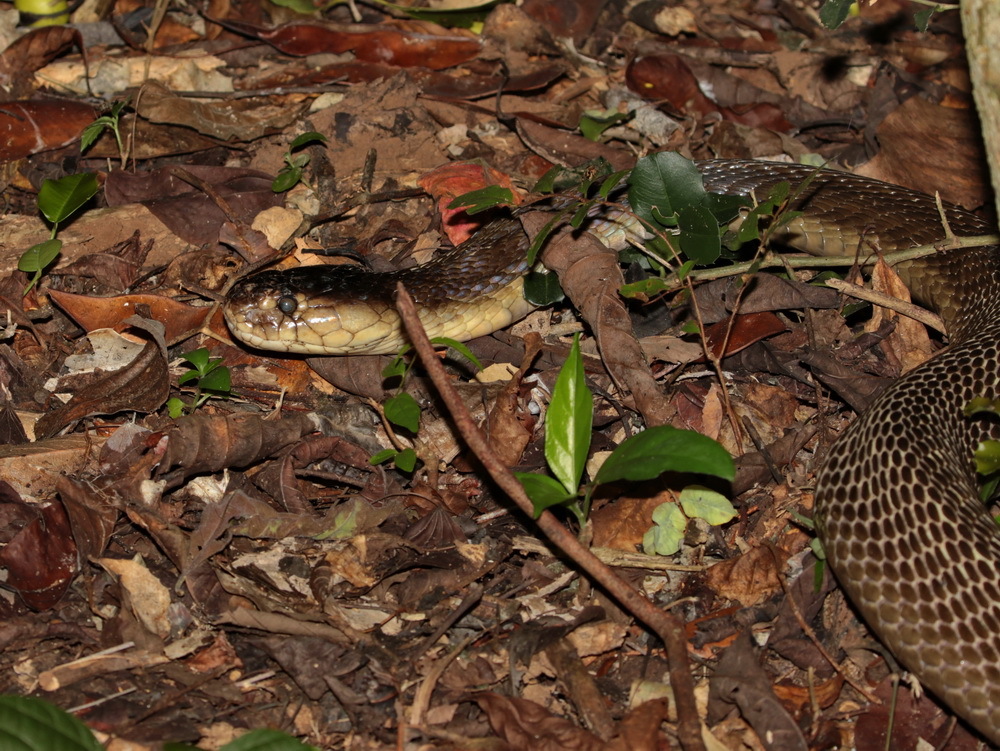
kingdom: Animalia
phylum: Chordata
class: Squamata
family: Elapidae
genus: Naja
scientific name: Naja kaouthia
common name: Monocled cobra
